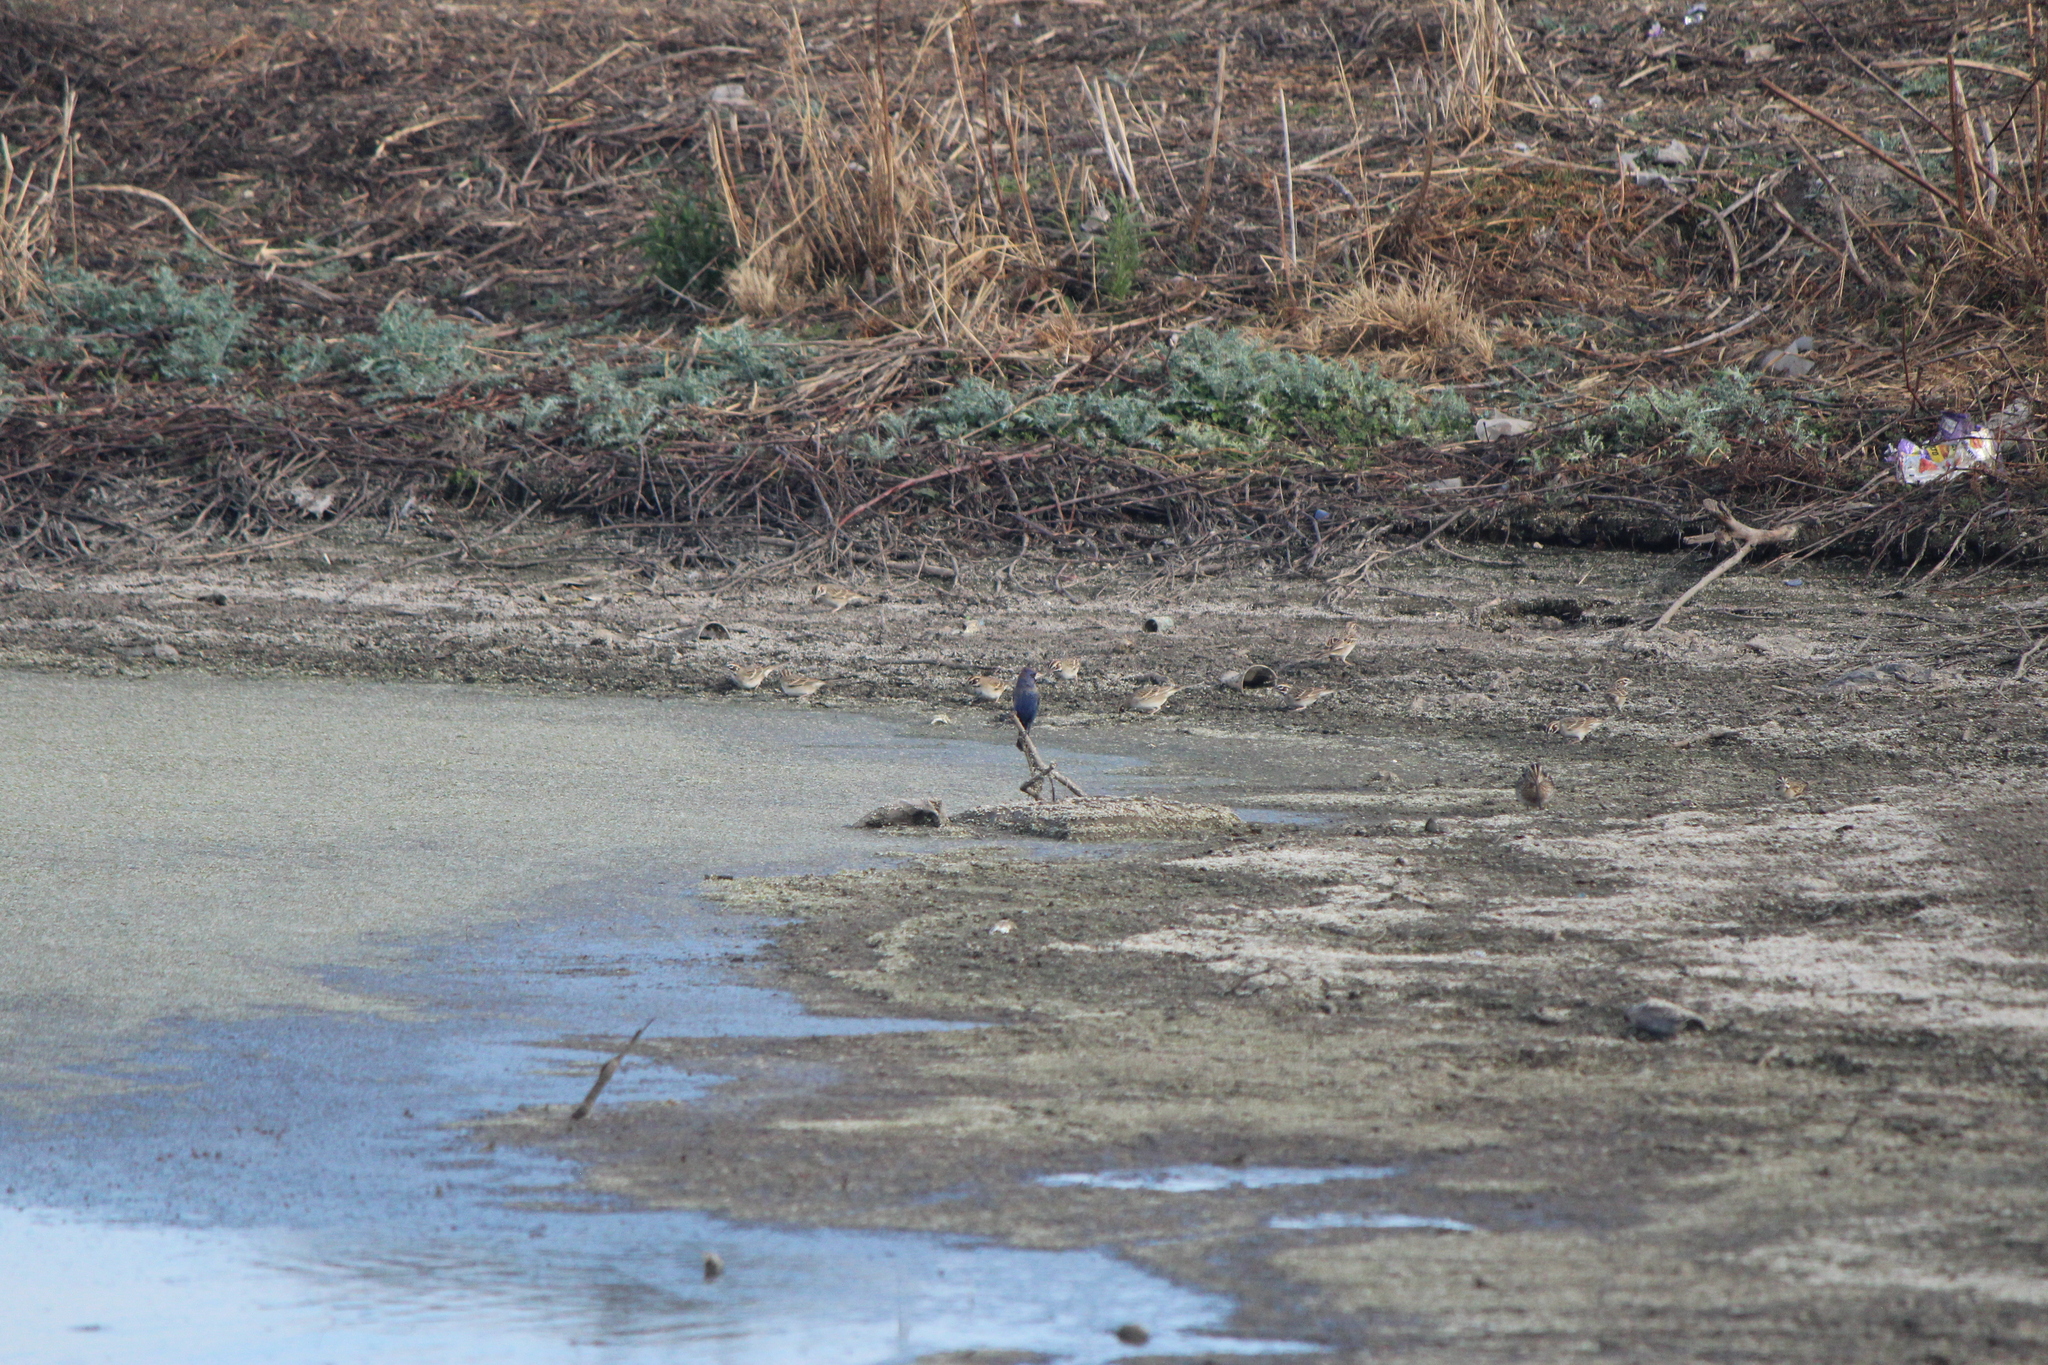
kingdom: Animalia
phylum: Chordata
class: Aves
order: Passeriformes
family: Cardinalidae
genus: Passerina
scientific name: Passerina caerulea
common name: Blue grosbeak
